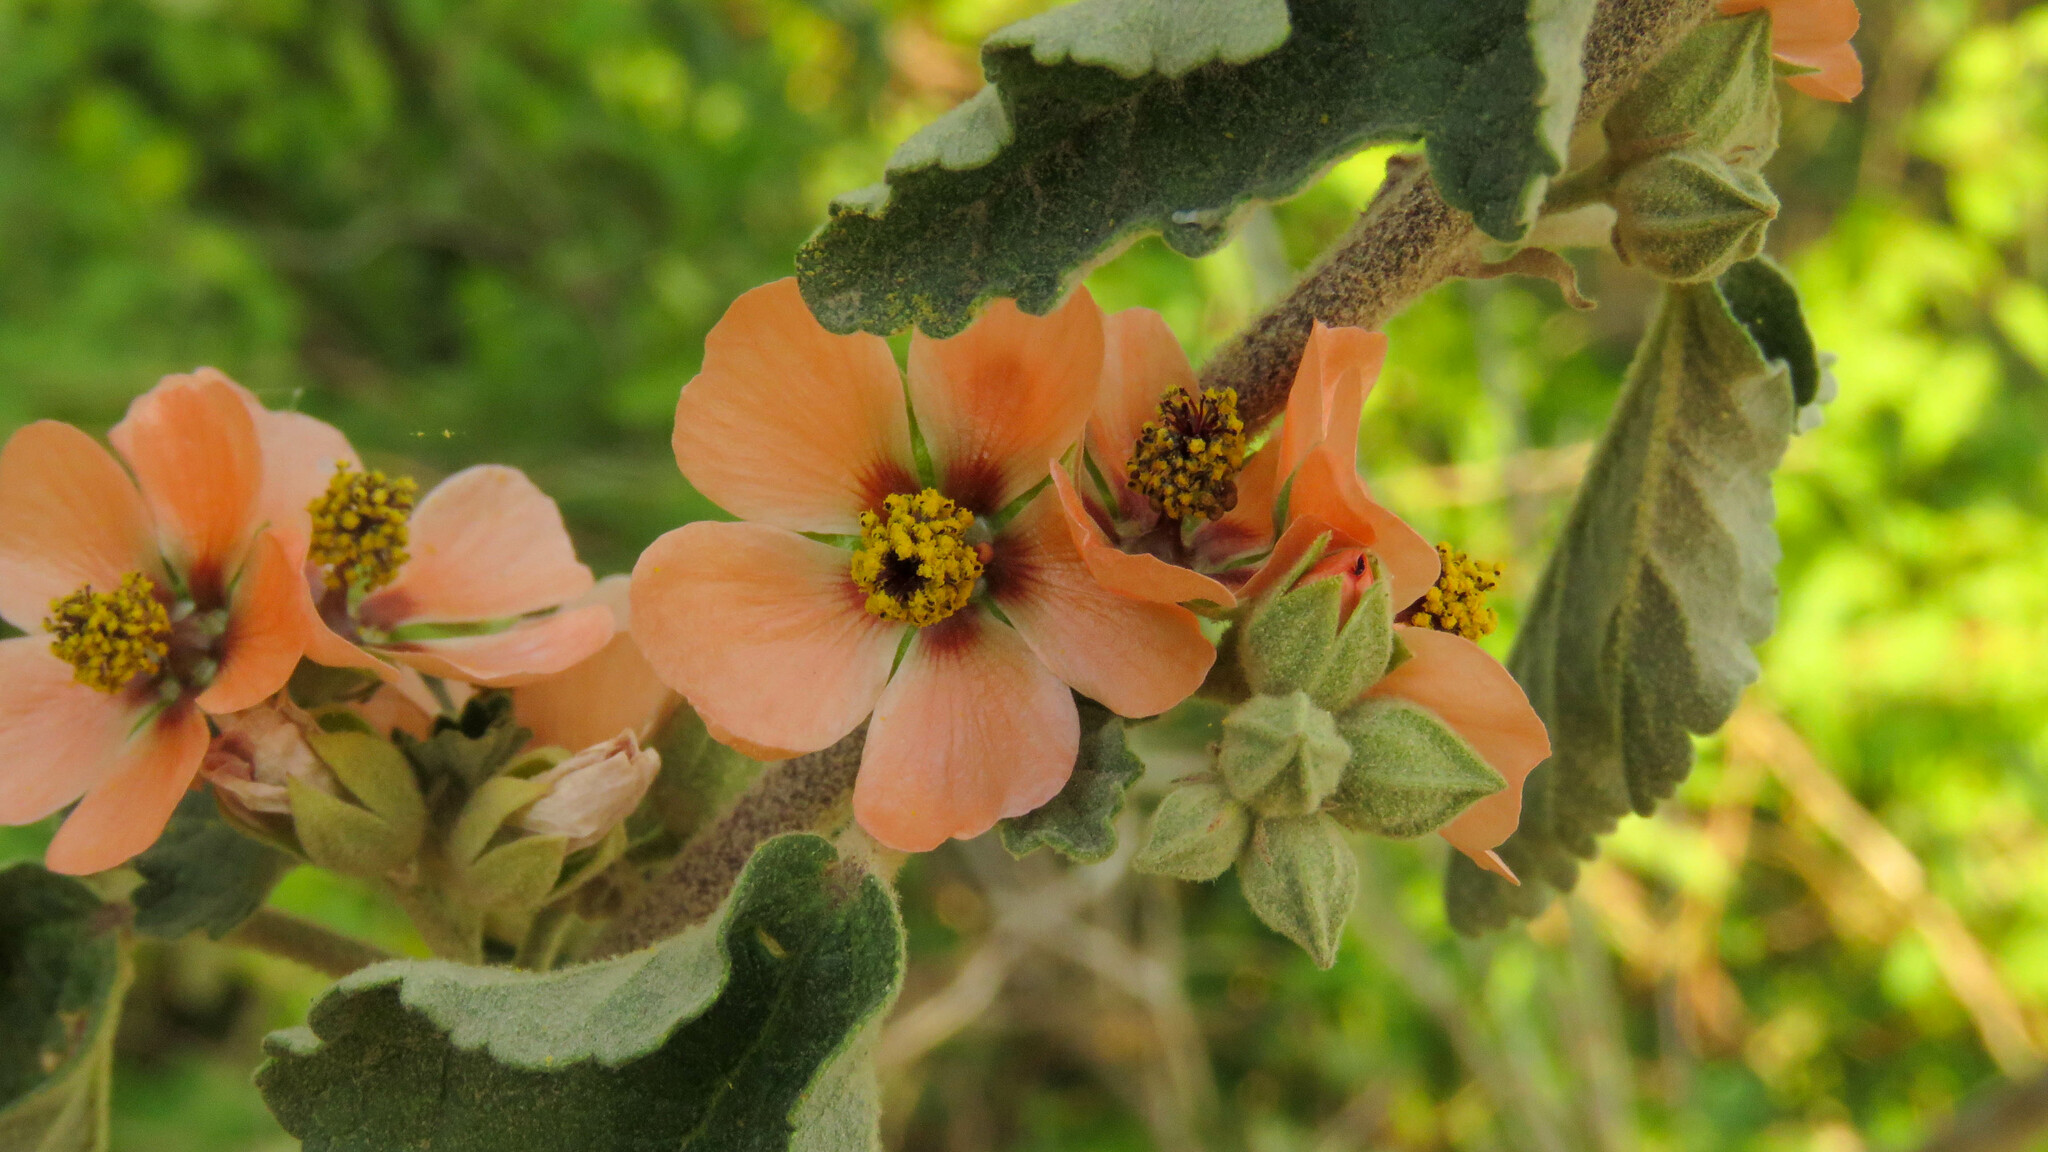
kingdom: Plantae
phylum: Tracheophyta
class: Magnoliopsida
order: Malvales
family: Malvaceae
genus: Sphaeralcea
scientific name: Sphaeralcea bonariensis
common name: Latin globemallow
